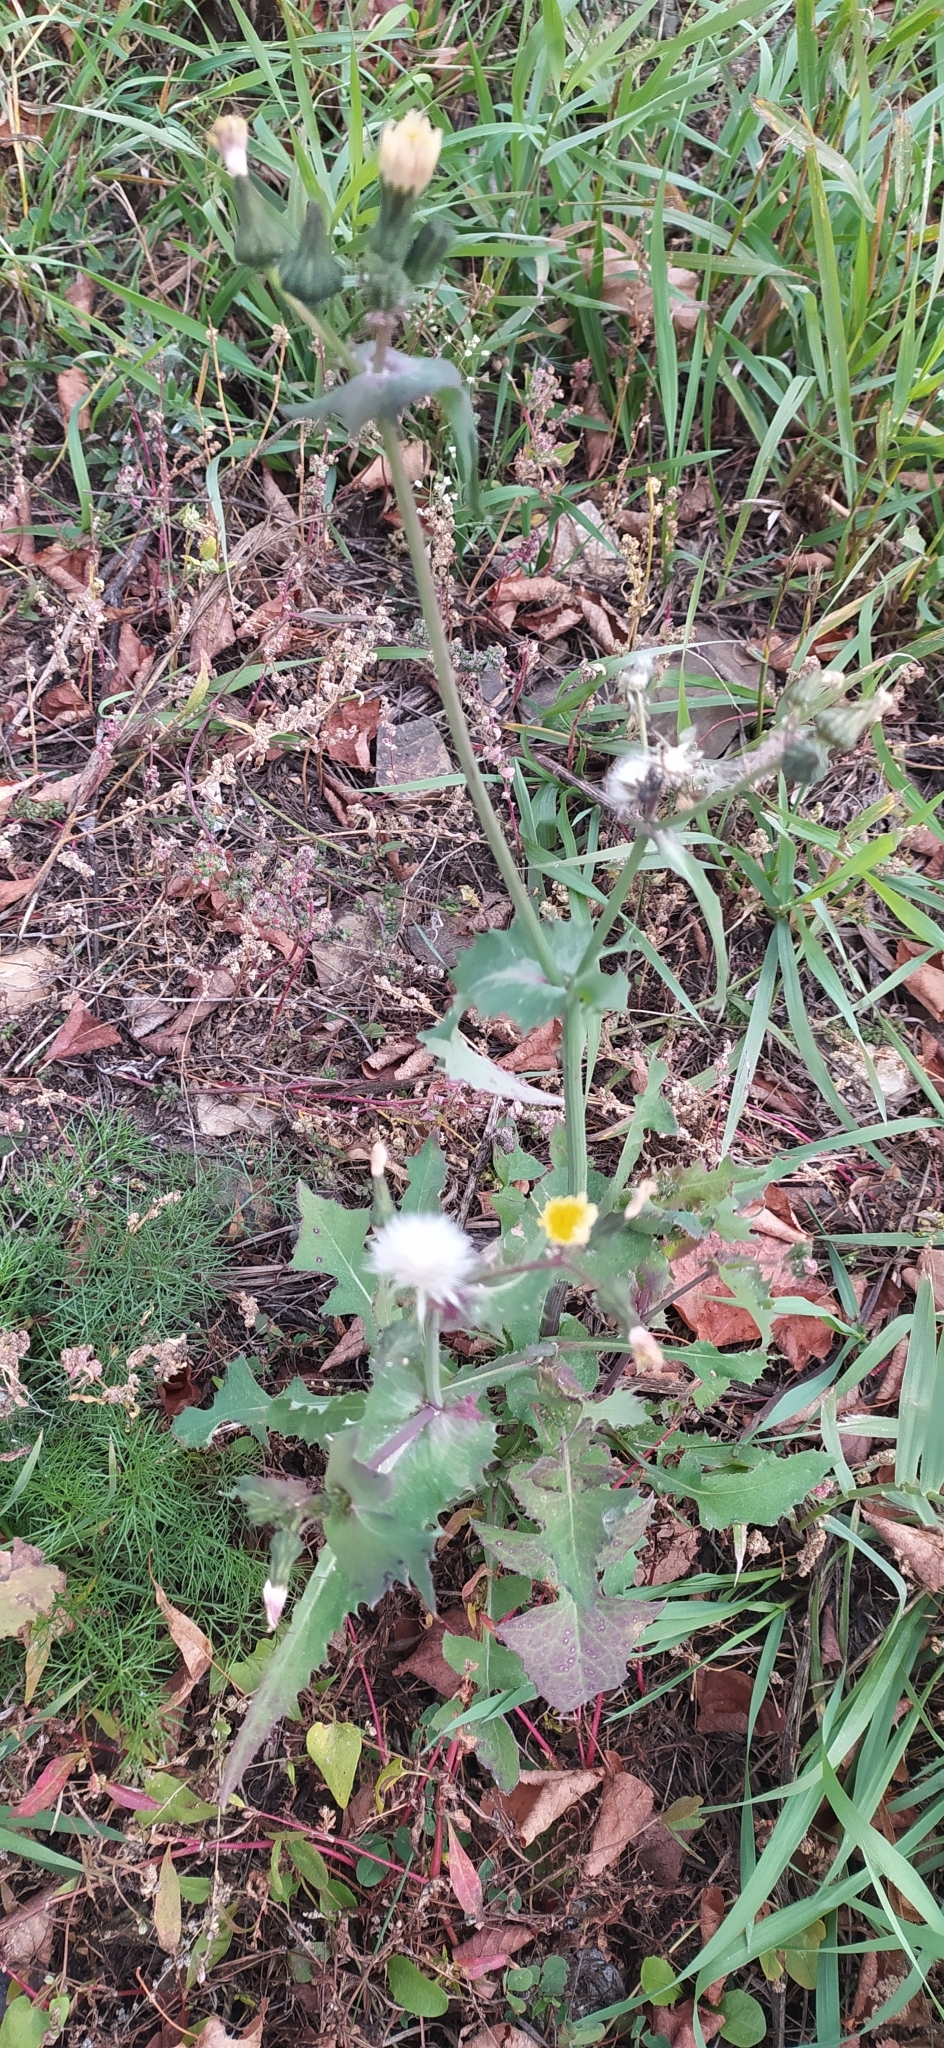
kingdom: Plantae
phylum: Tracheophyta
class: Magnoliopsida
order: Asterales
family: Asteraceae
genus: Sonchus
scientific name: Sonchus oleraceus
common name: Common sowthistle
